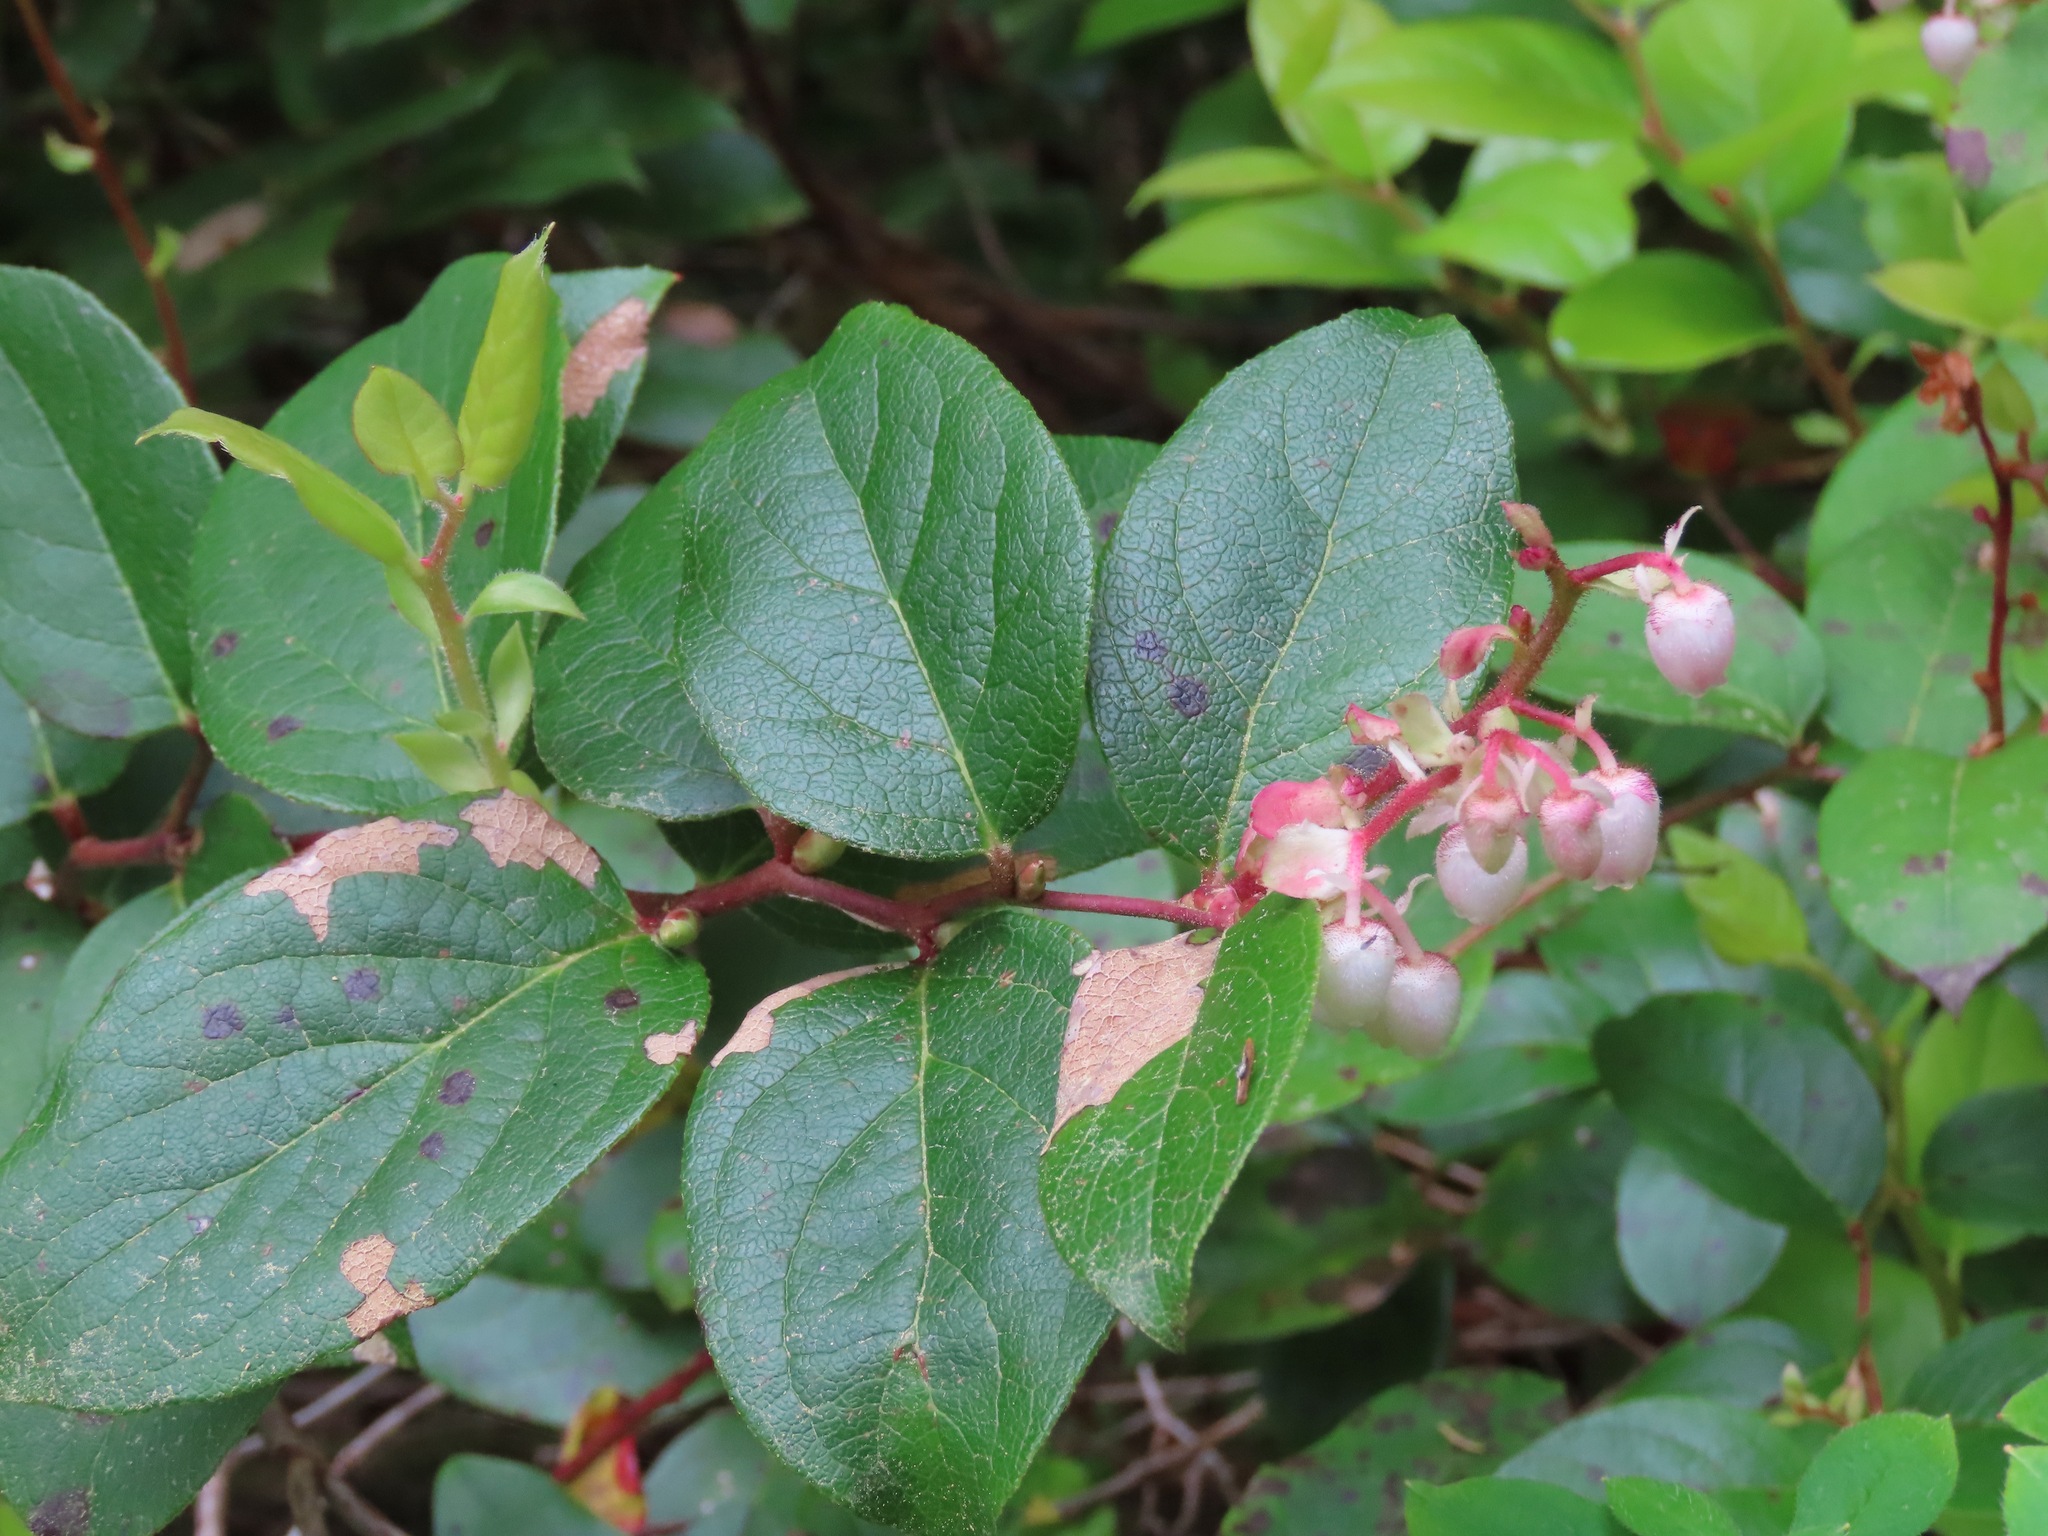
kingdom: Plantae
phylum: Tracheophyta
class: Magnoliopsida
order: Ericales
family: Ericaceae
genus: Gaultheria
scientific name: Gaultheria shallon
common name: Shallon
